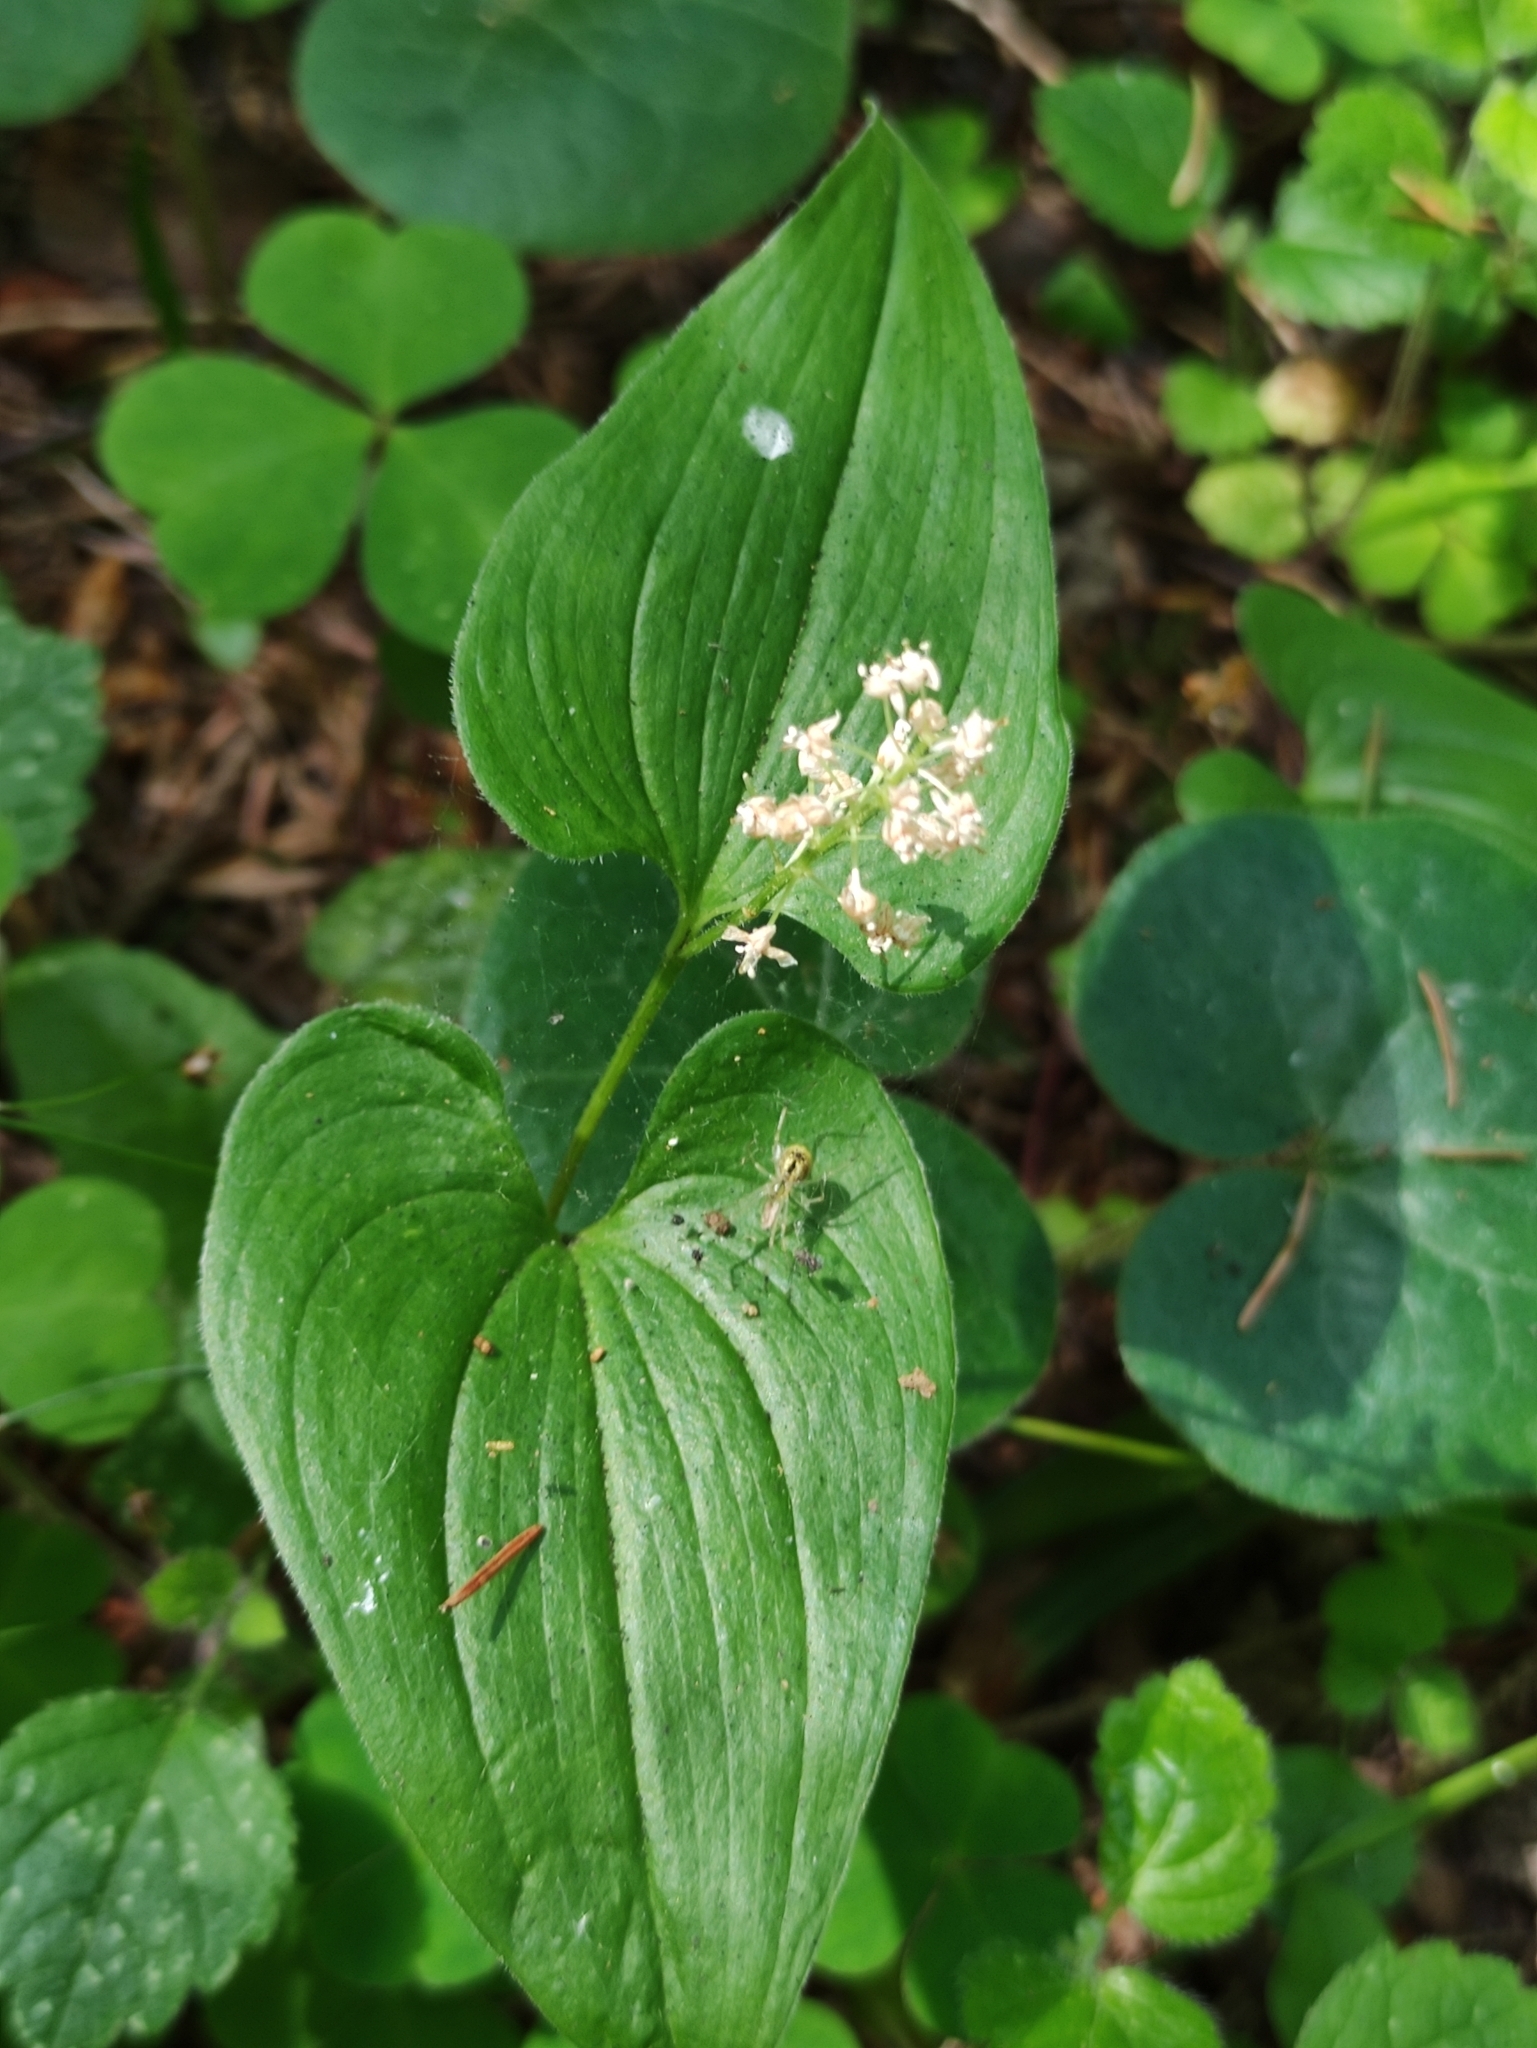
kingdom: Plantae
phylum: Tracheophyta
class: Liliopsida
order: Asparagales
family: Asparagaceae
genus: Maianthemum
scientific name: Maianthemum bifolium
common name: May lily
